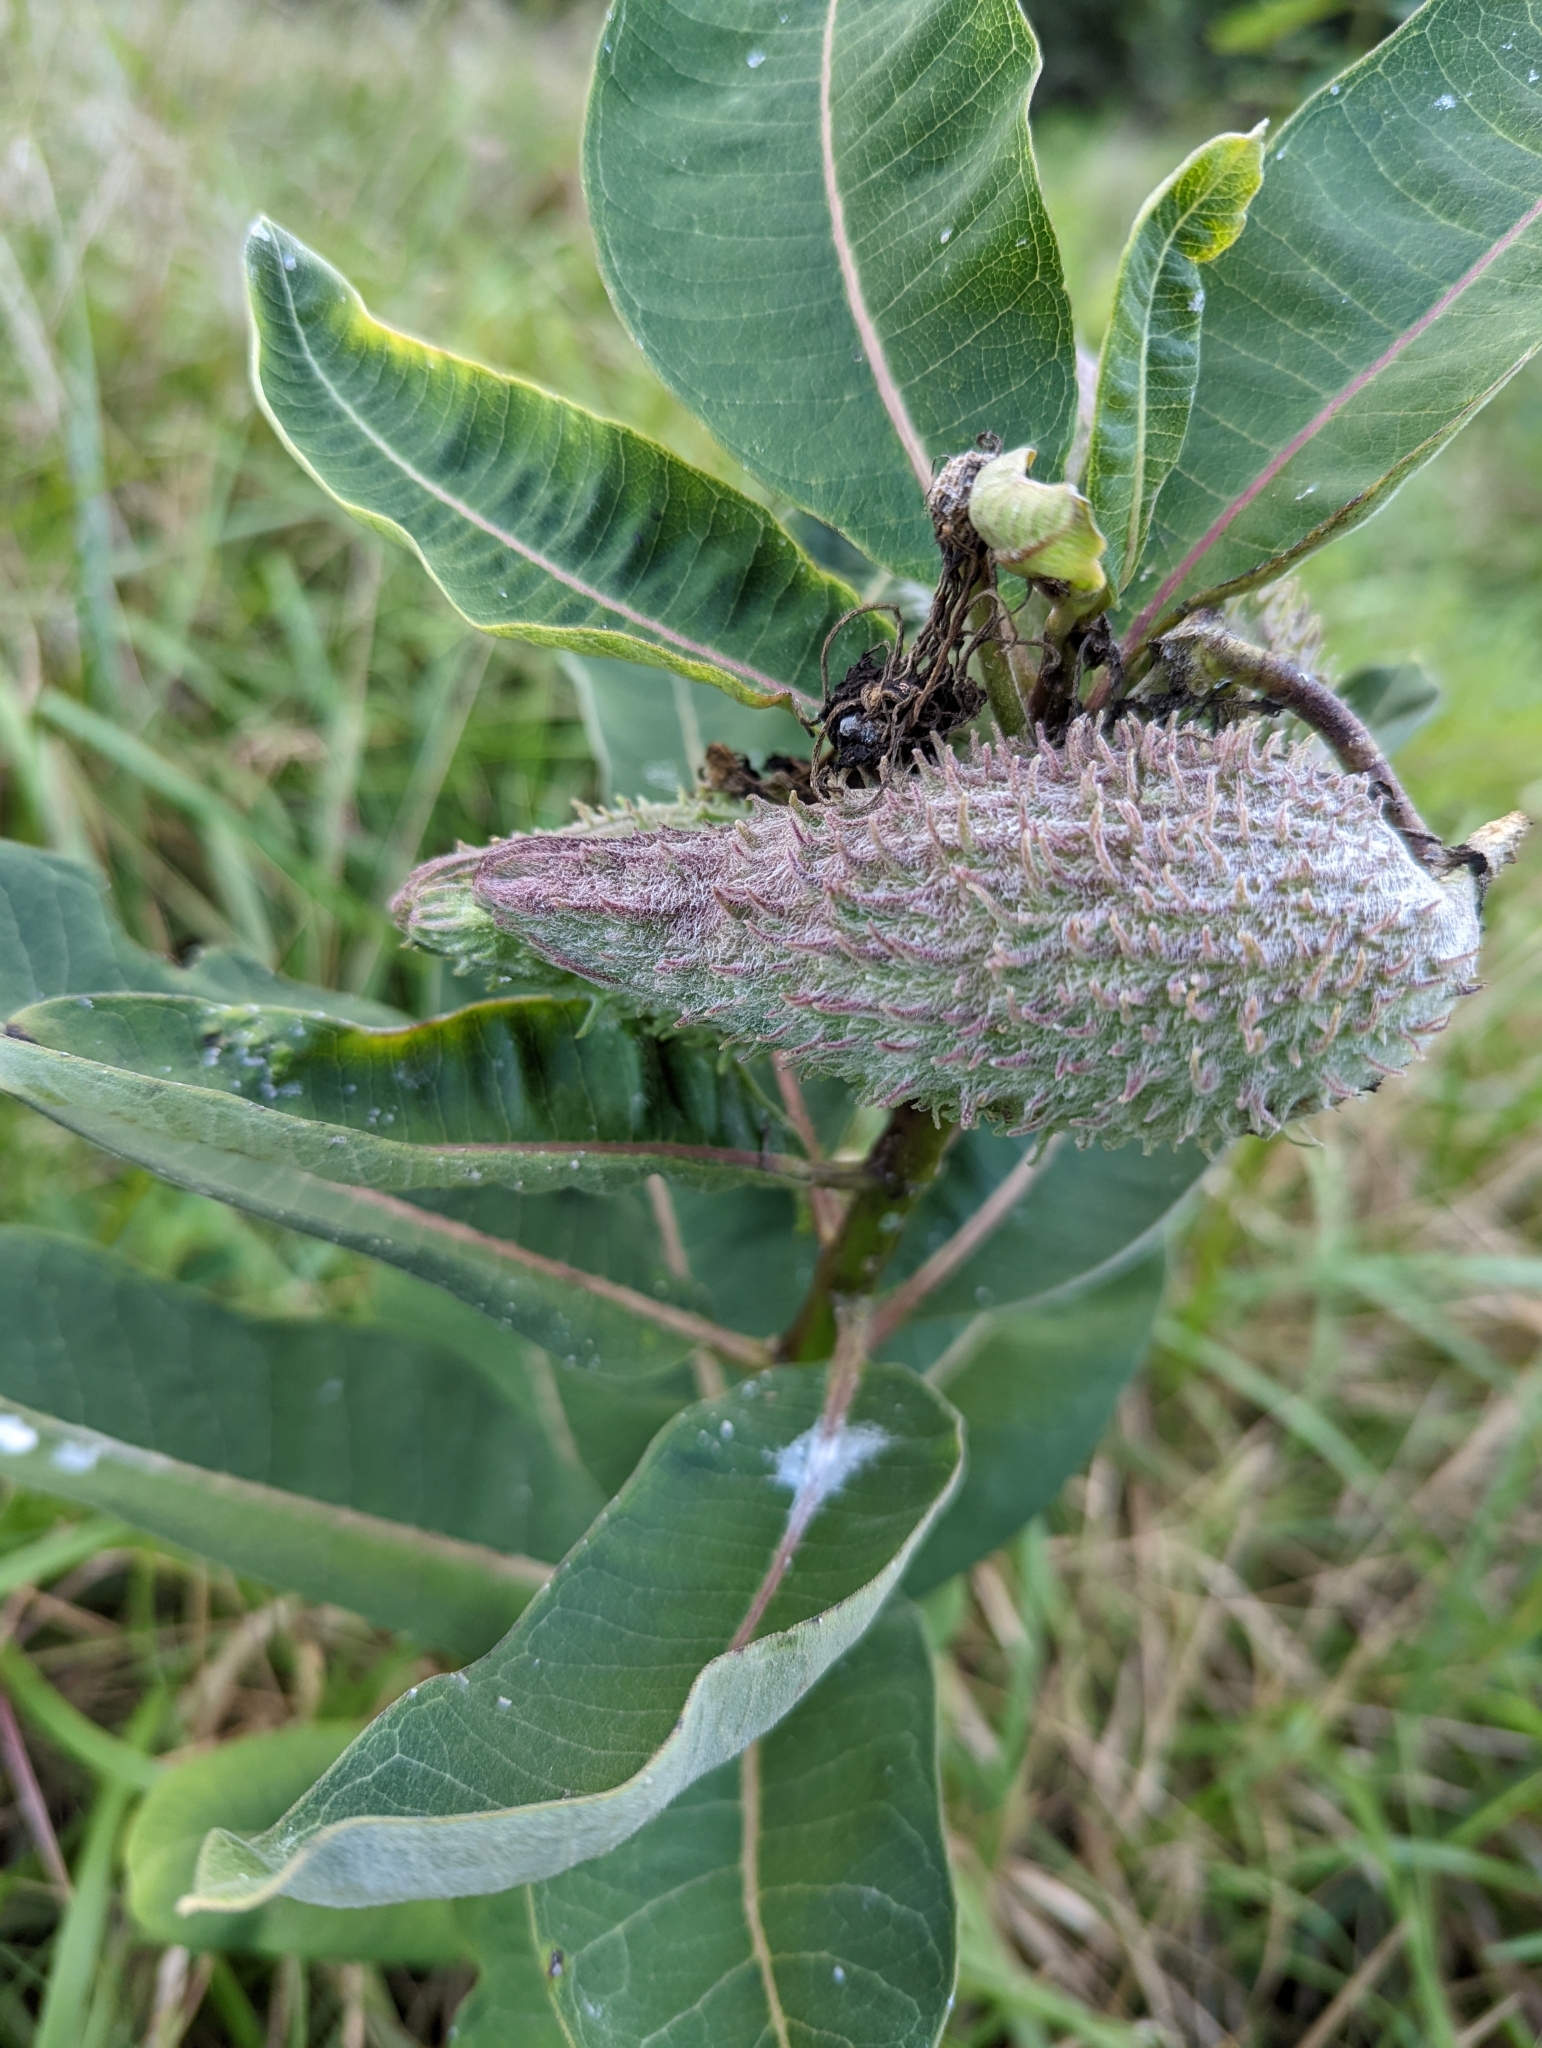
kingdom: Plantae
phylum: Tracheophyta
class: Magnoliopsida
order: Gentianales
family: Apocynaceae
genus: Asclepias
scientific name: Asclepias syriaca
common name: Common milkweed
